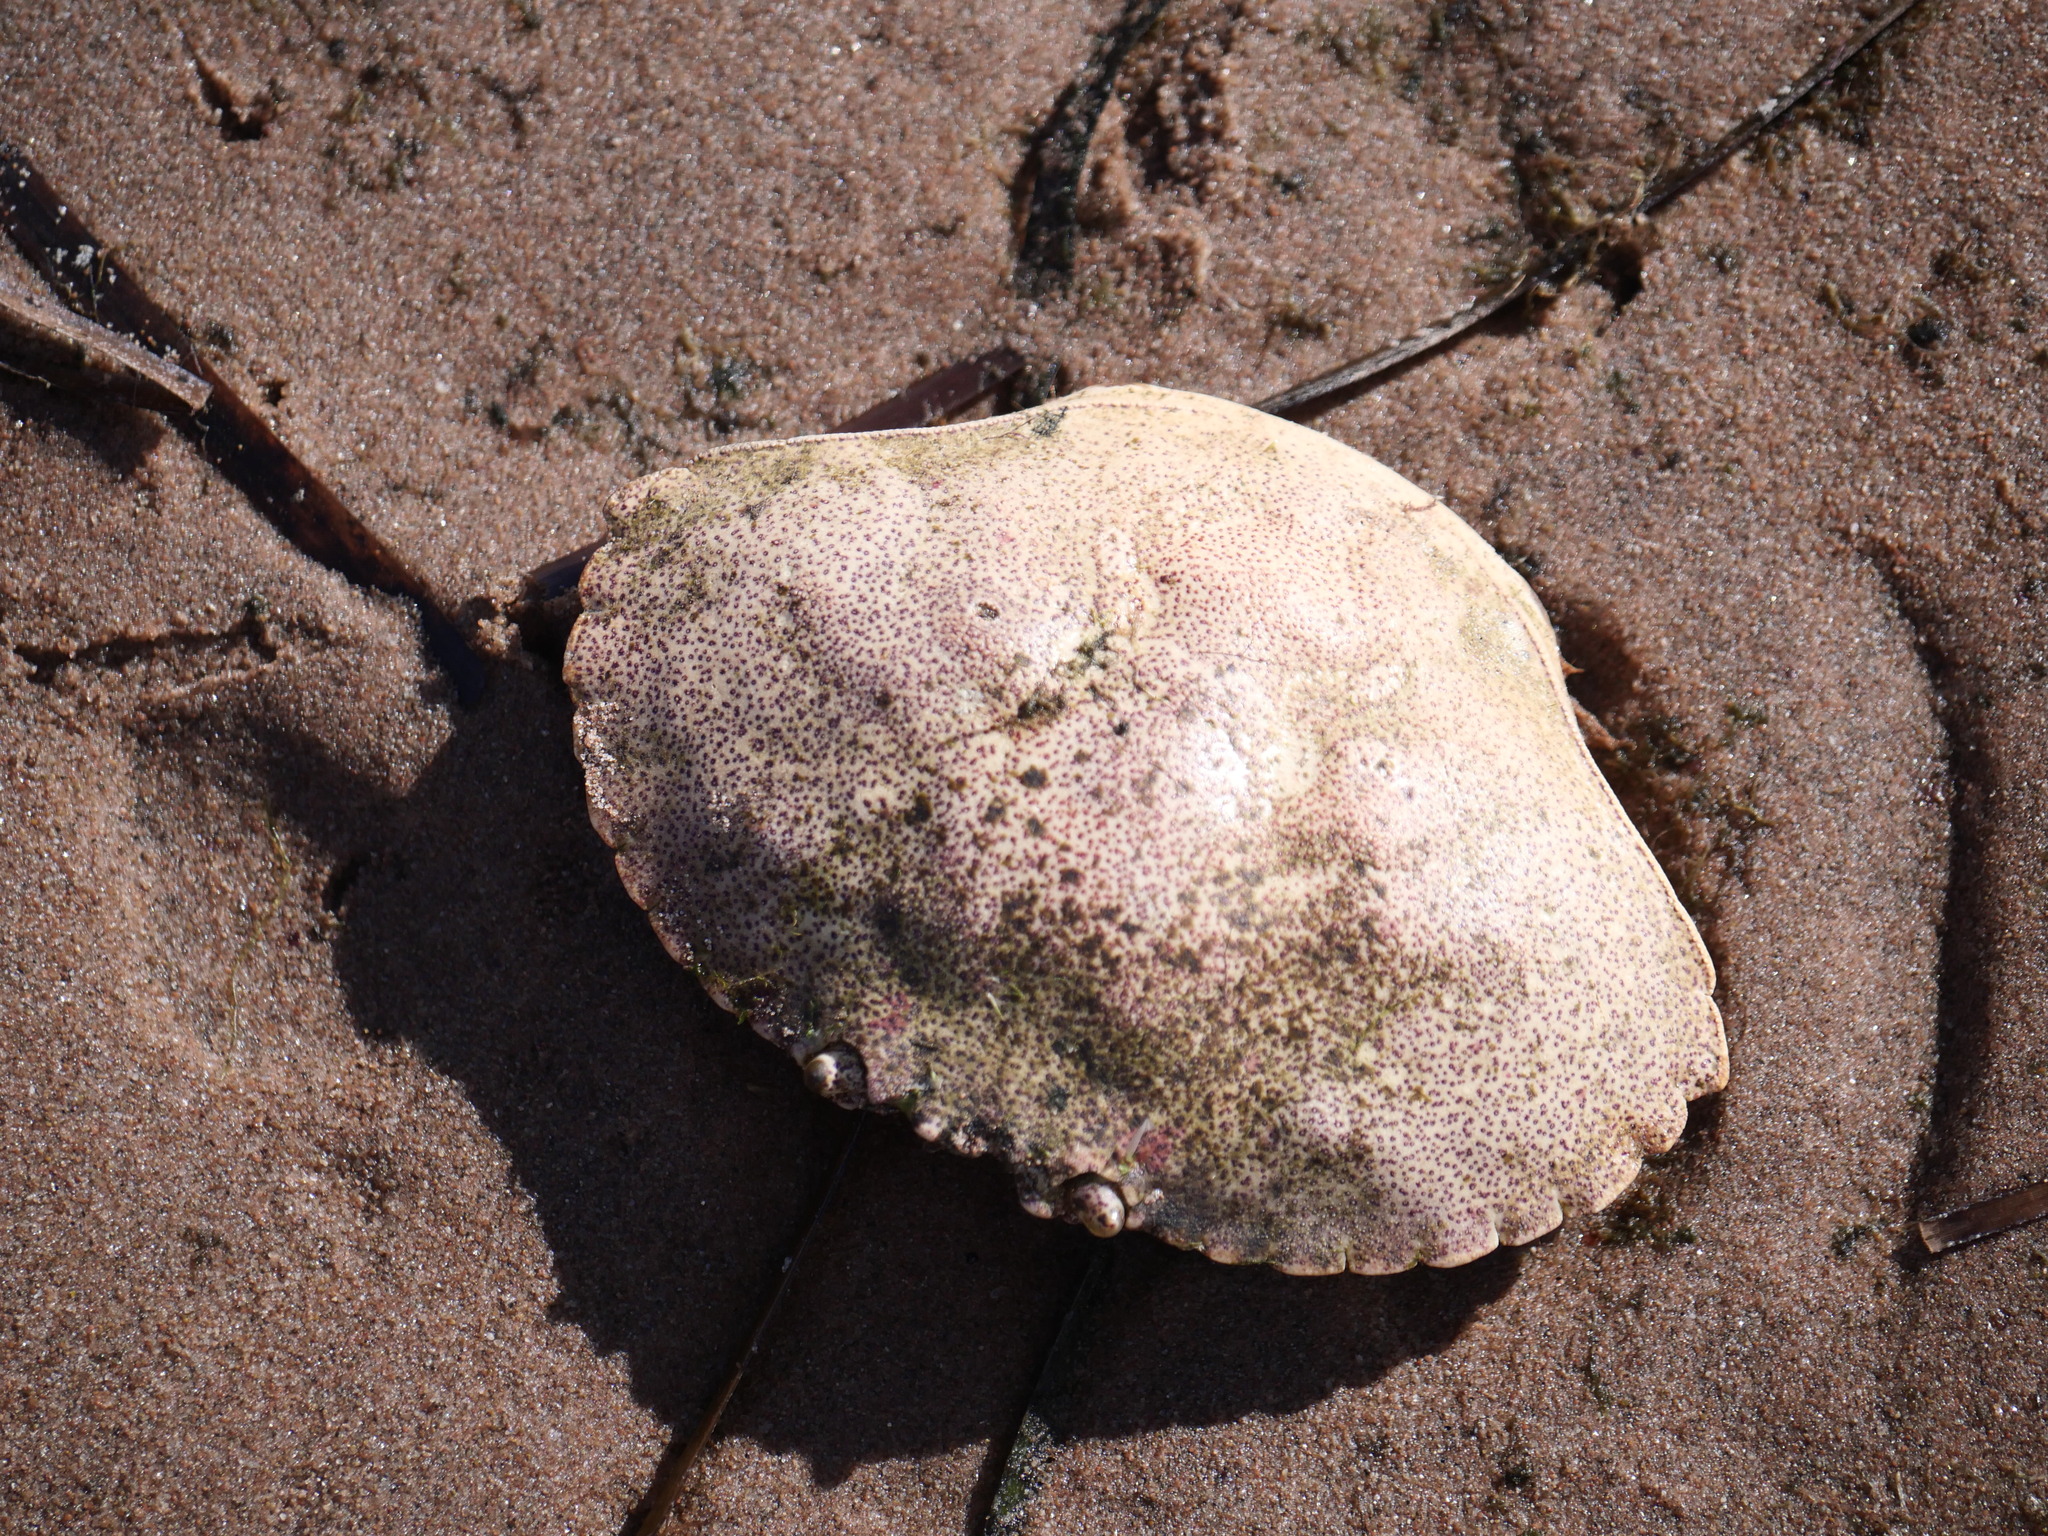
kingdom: Animalia
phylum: Arthropoda
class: Malacostraca
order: Decapoda
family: Cancridae
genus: Cancer
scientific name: Cancer irroratus
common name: Atlantic rock crab
